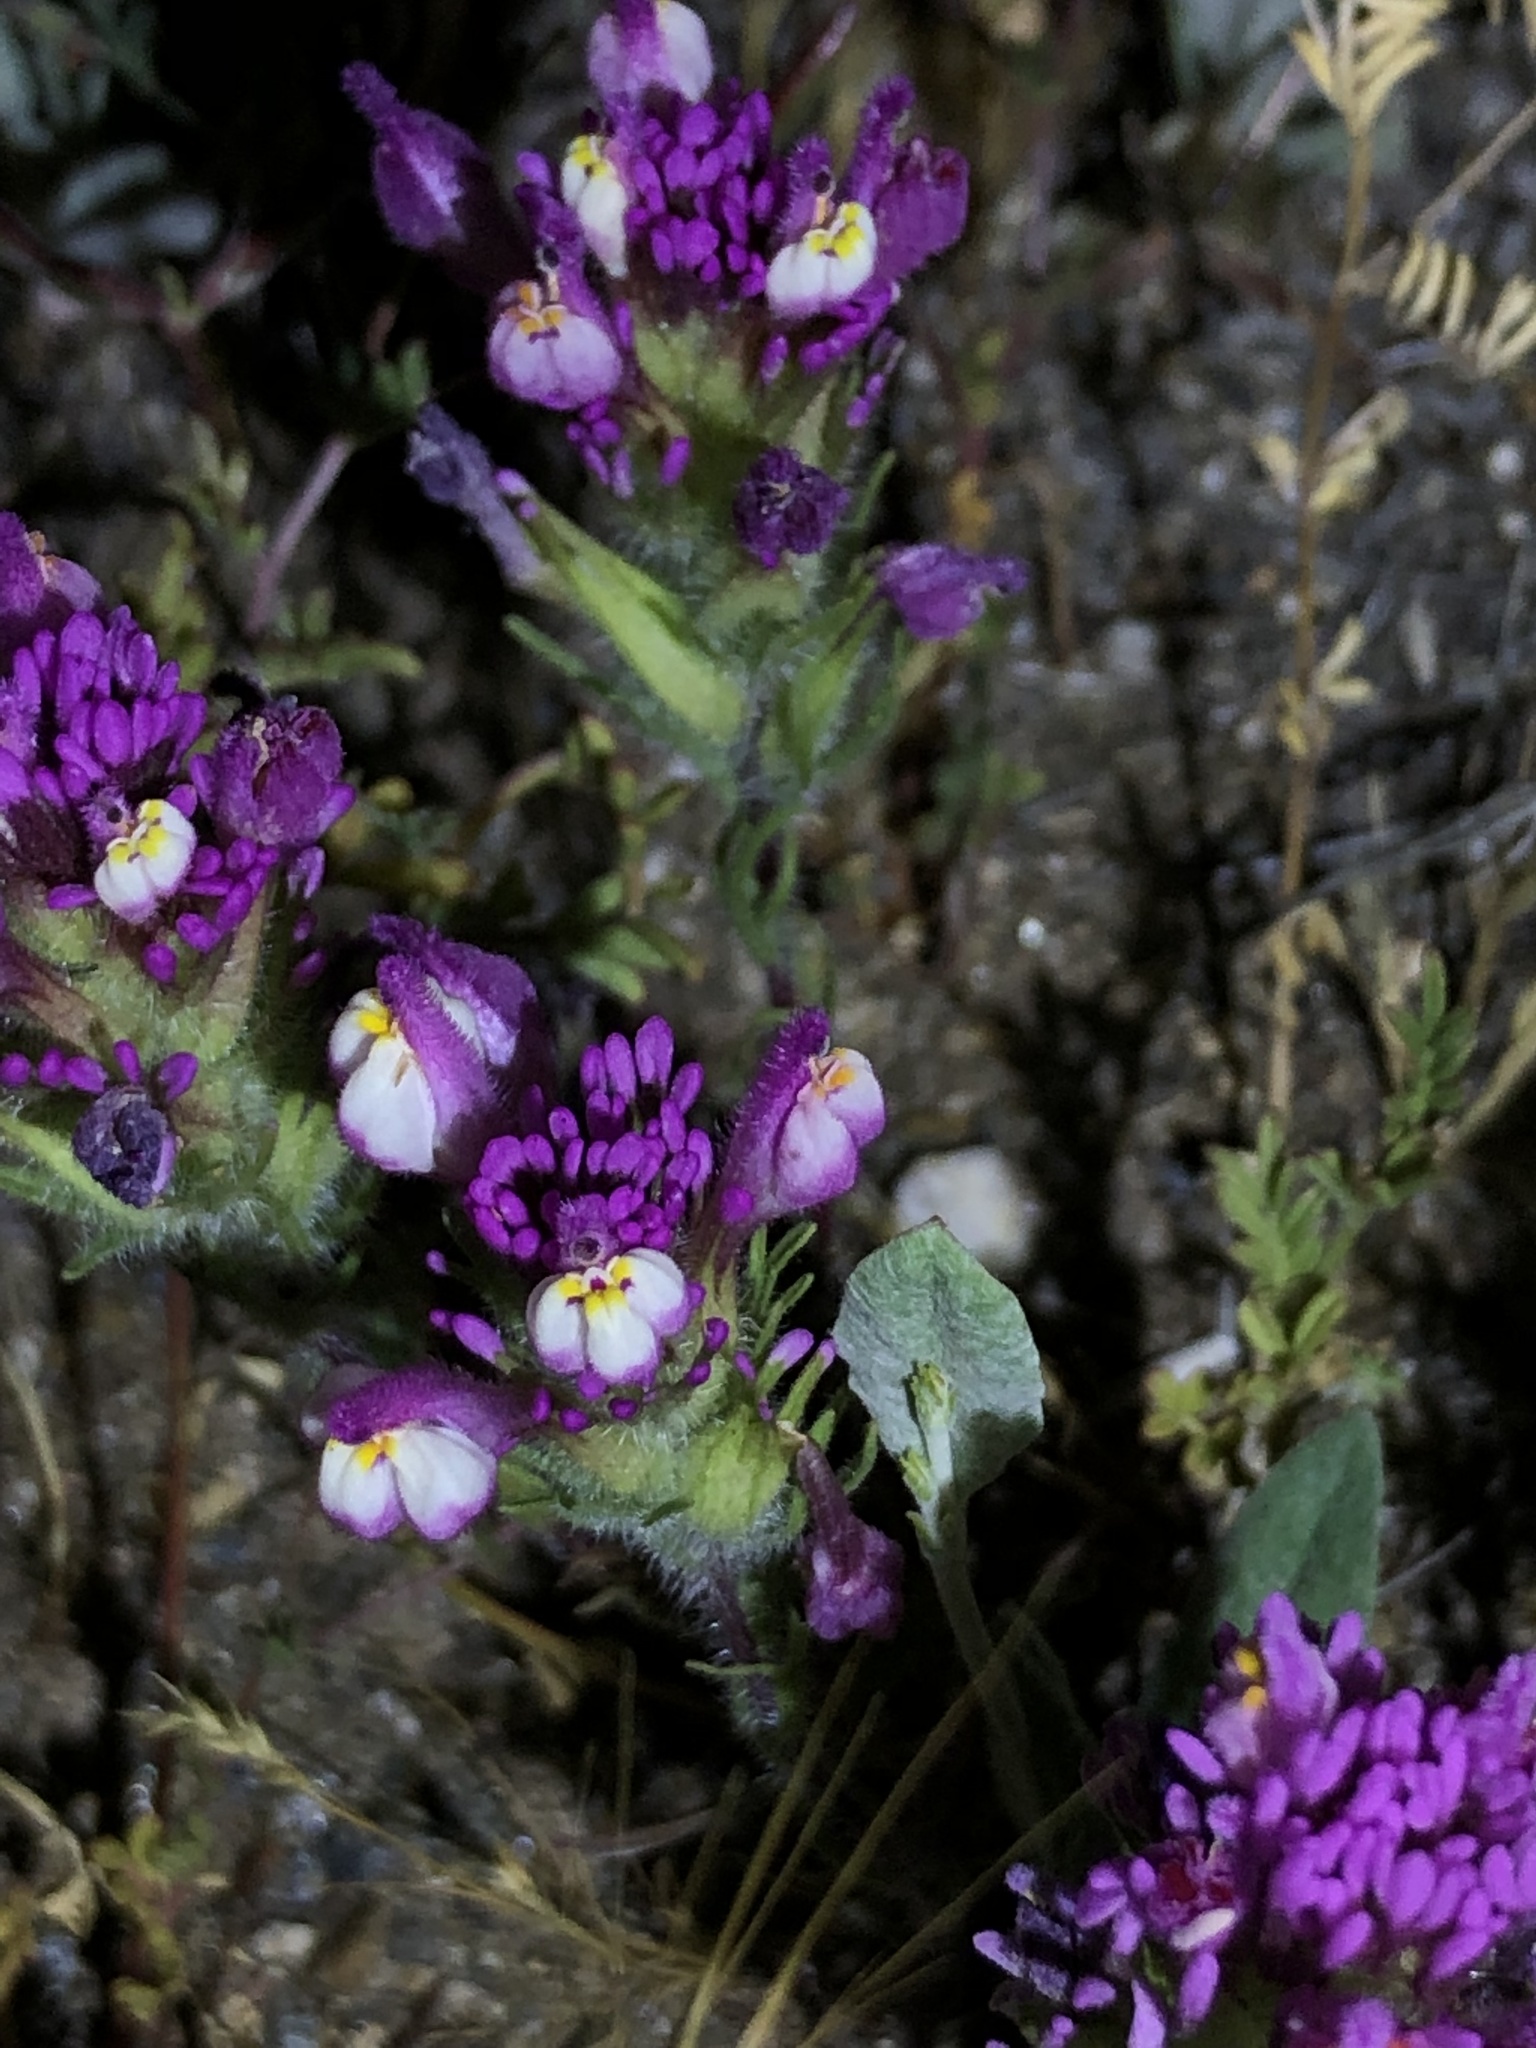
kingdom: Plantae
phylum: Tracheophyta
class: Magnoliopsida
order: Lamiales
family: Orobanchaceae
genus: Castilleja
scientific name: Castilleja exserta
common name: Purple owl-clover
